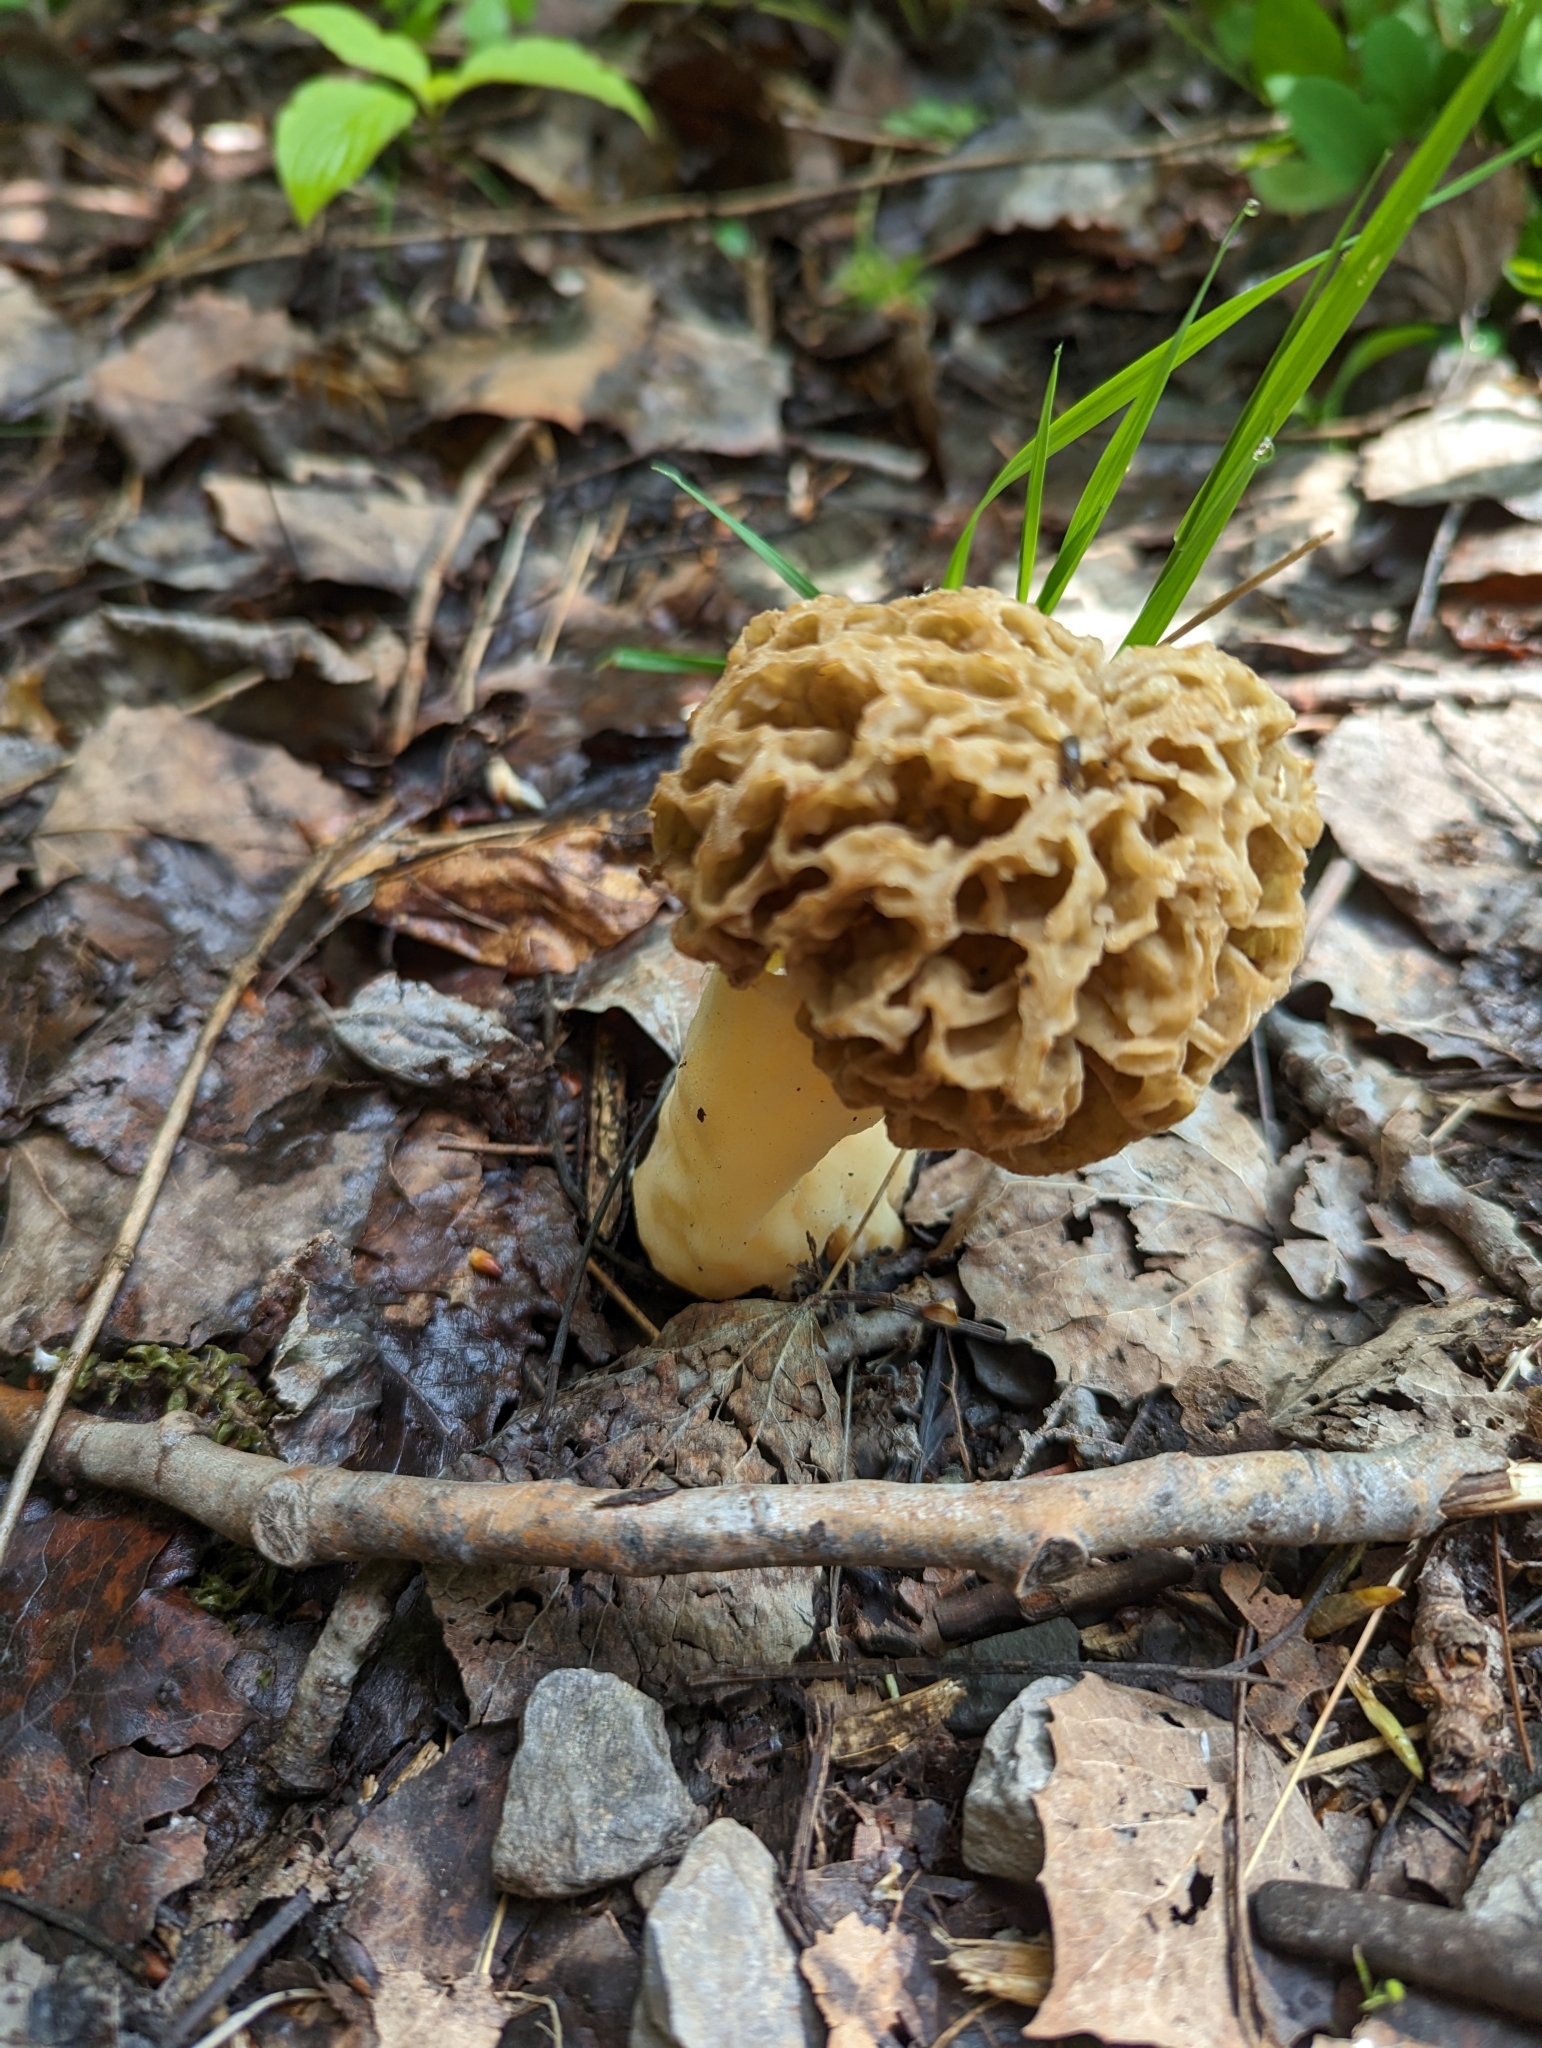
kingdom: Fungi
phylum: Ascomycota
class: Pezizomycetes
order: Pezizales
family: Morchellaceae
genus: Morchella
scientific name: Morchella americana
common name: White morel
